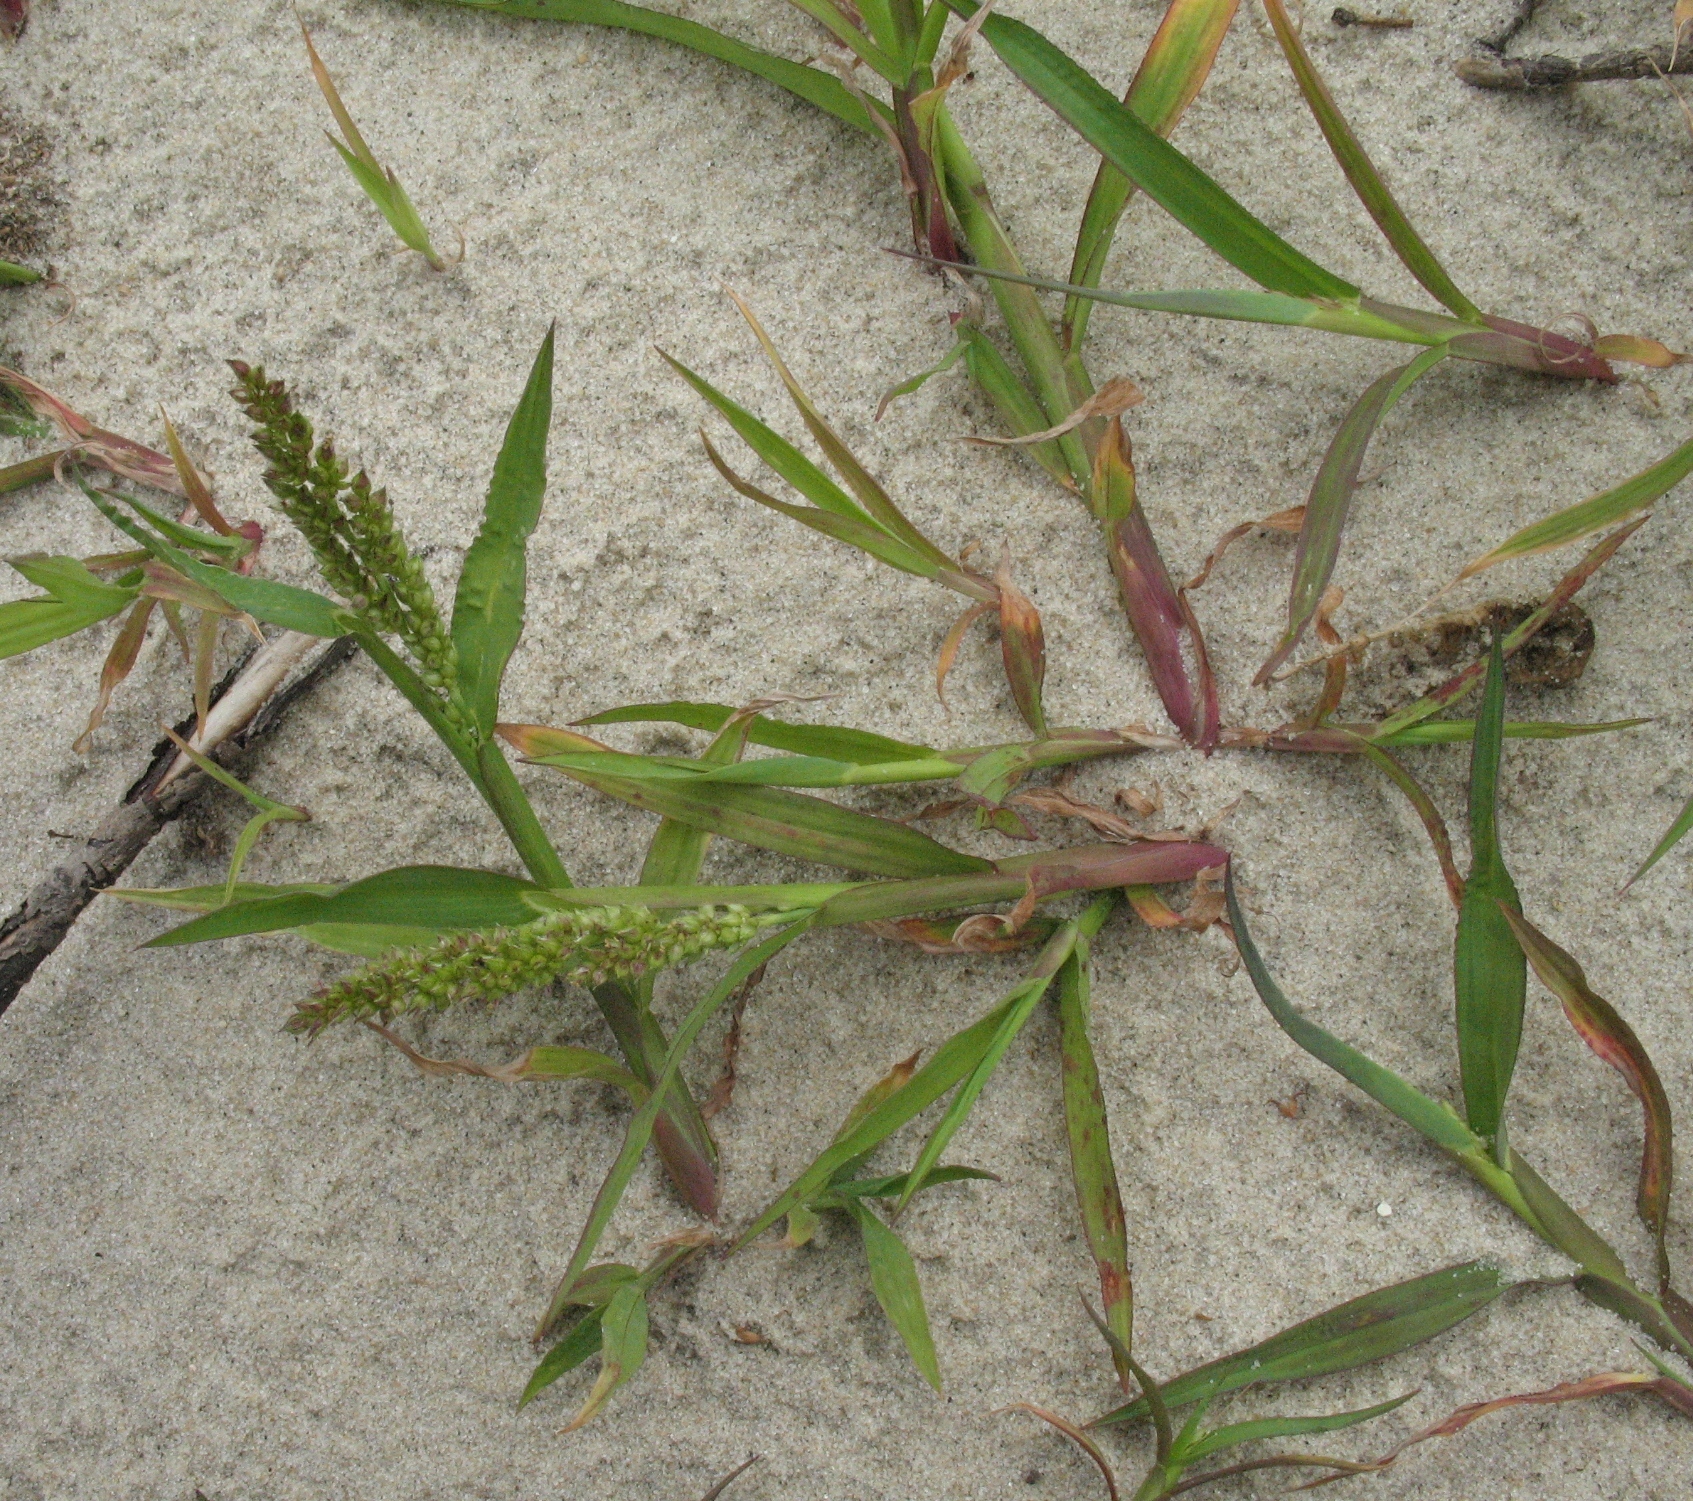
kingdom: Plantae
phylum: Tracheophyta
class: Liliopsida
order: Poales
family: Poaceae
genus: Echinochloa
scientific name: Echinochloa crus-galli
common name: Cockspur
